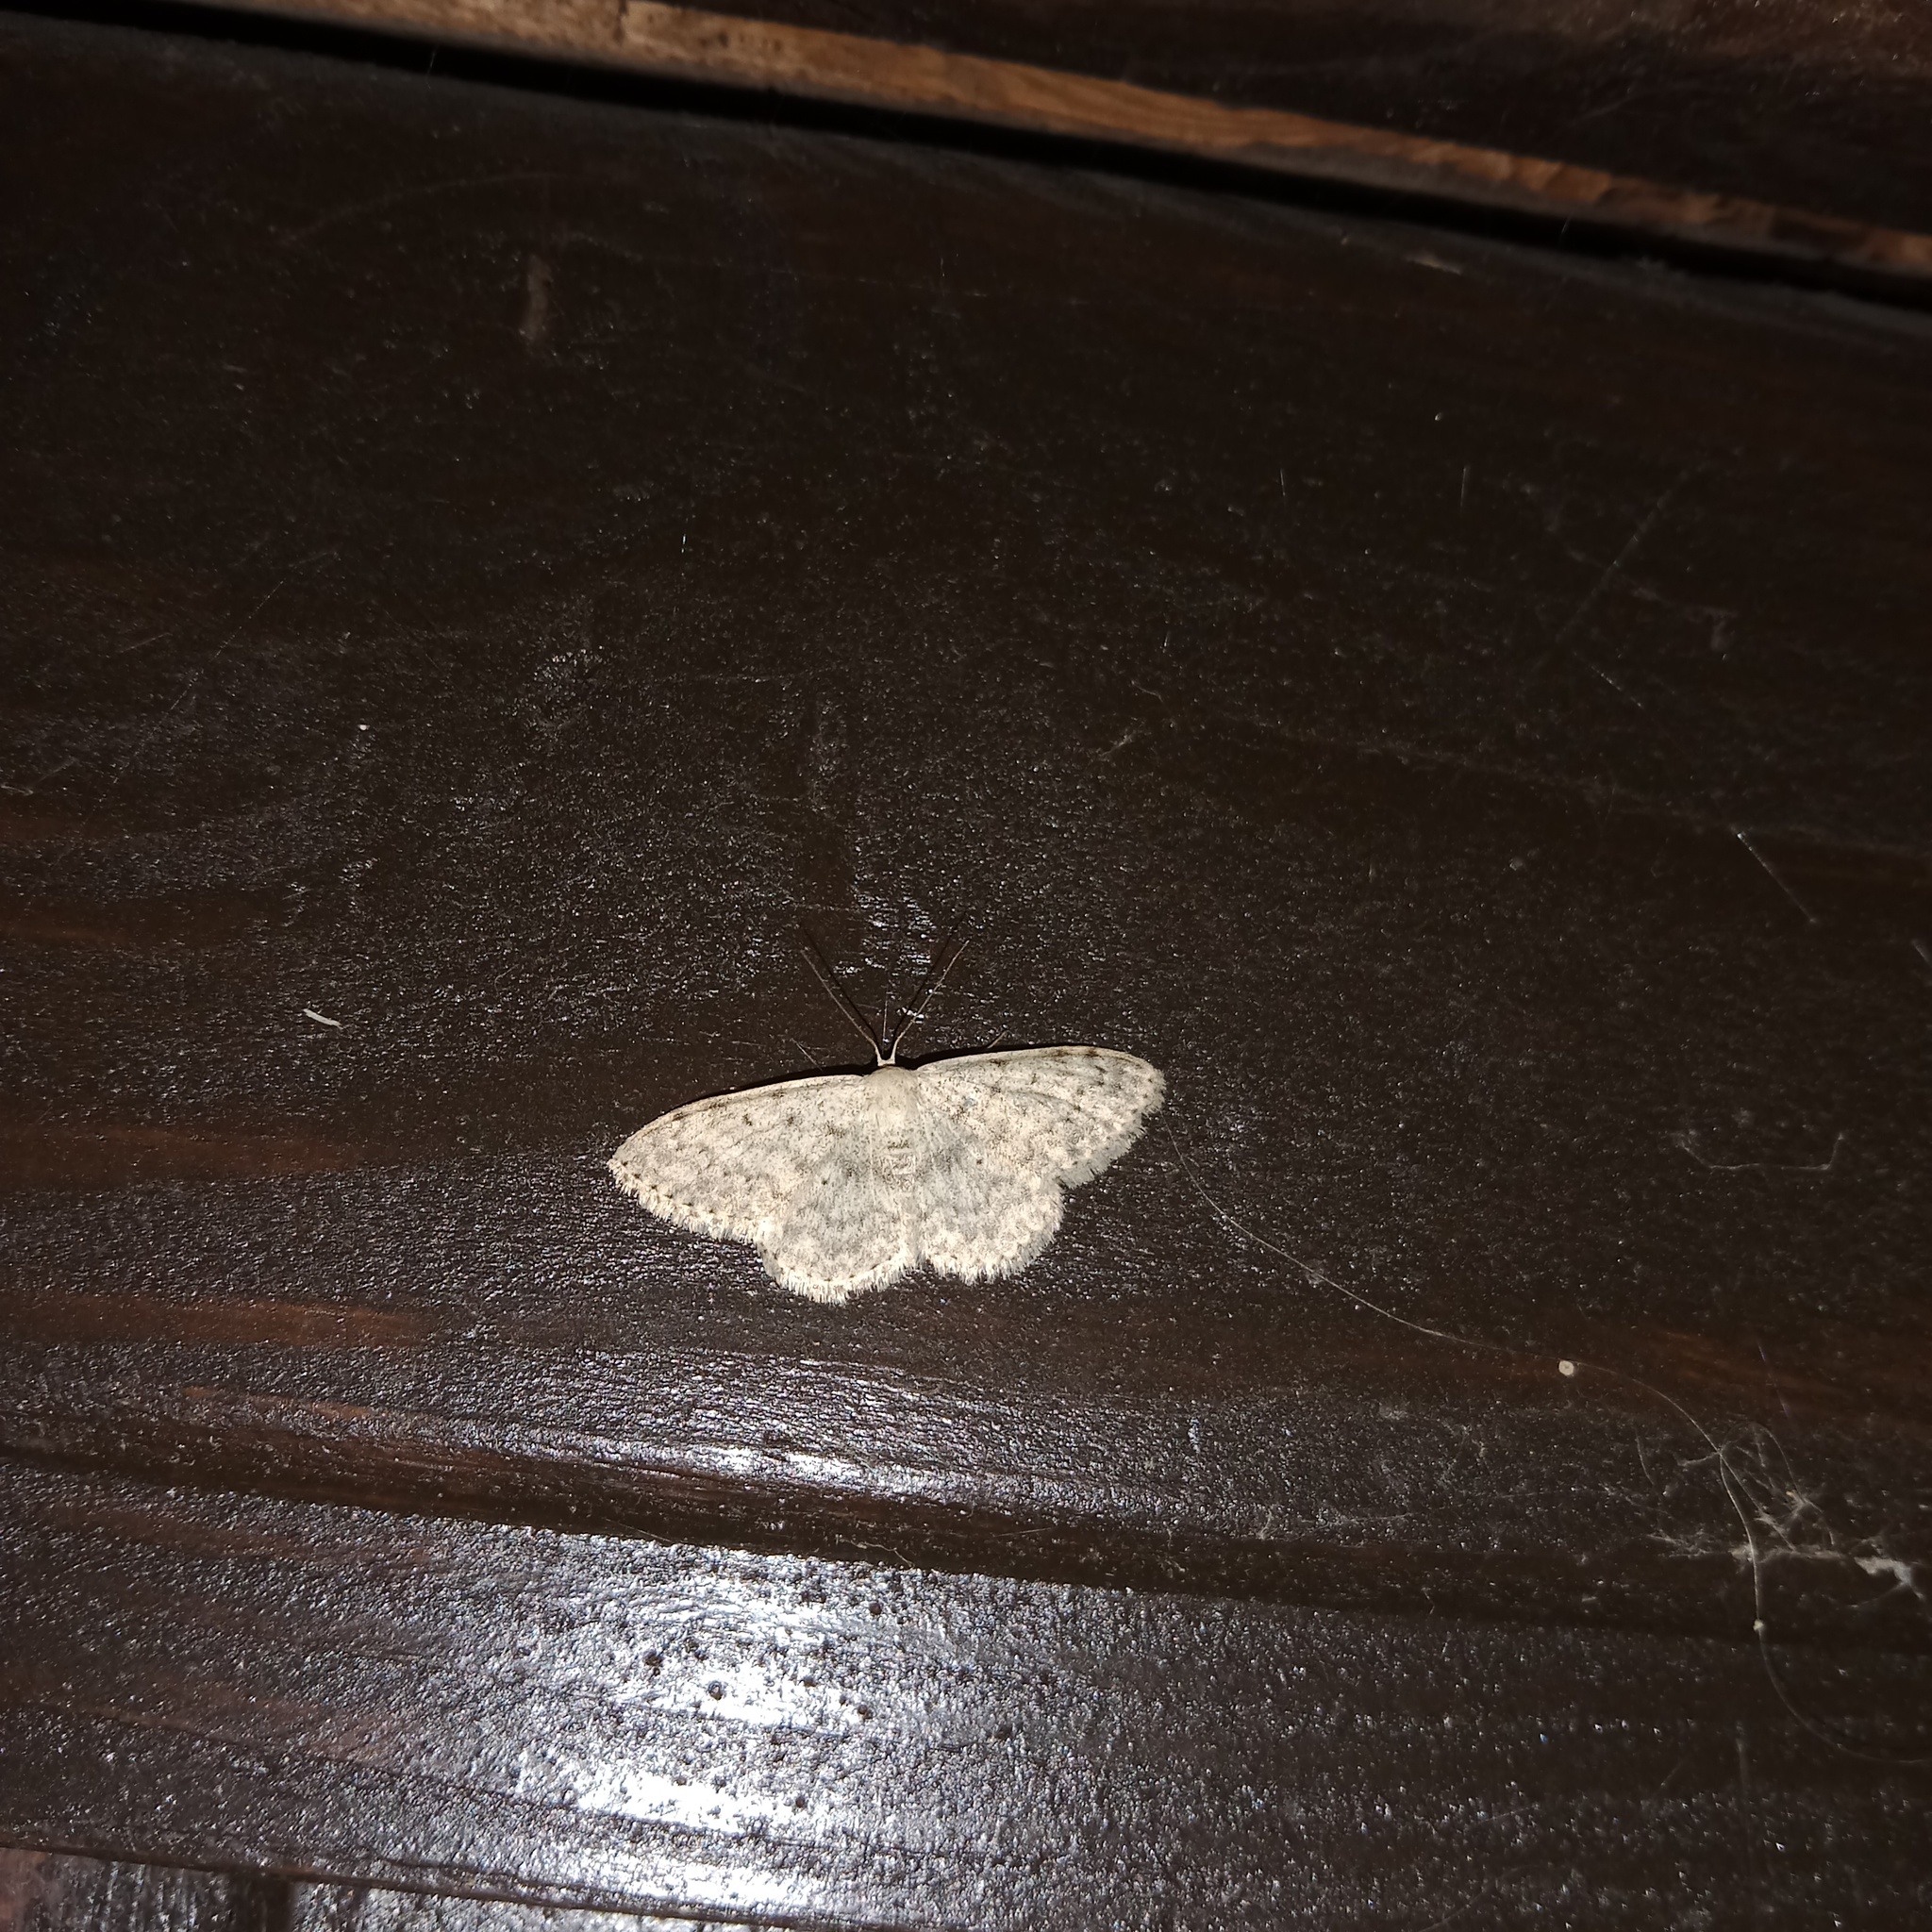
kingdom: Animalia
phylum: Arthropoda
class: Insecta
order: Lepidoptera
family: Geometridae
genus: Scopula
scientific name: Scopula marginepunctata
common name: Mullein wave
